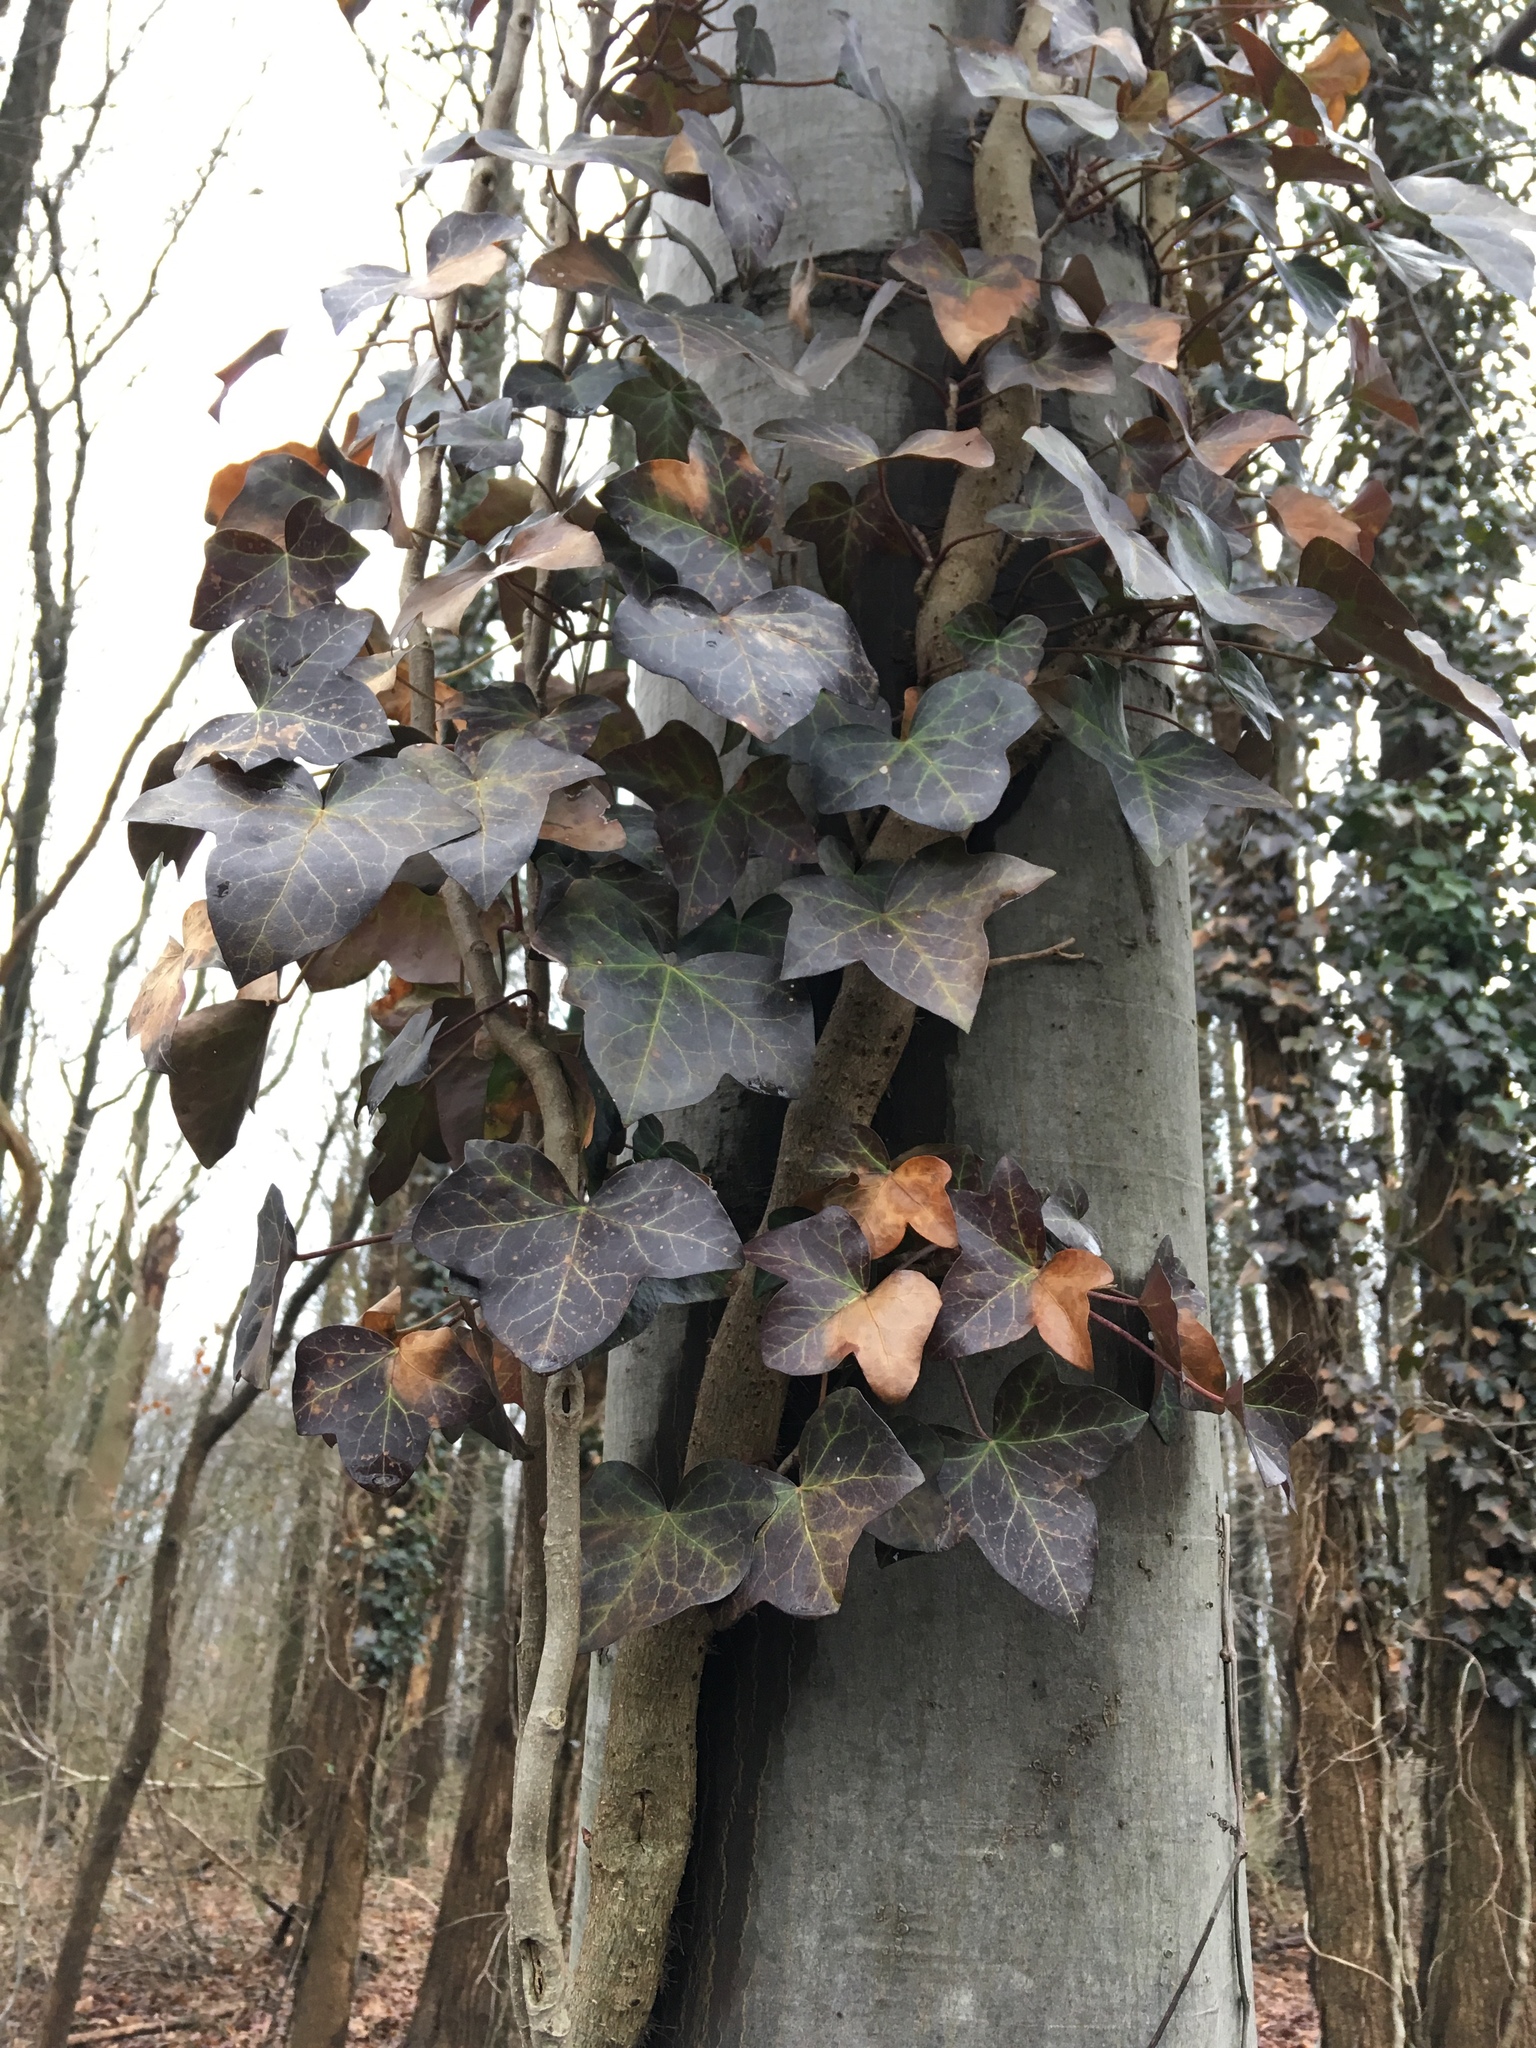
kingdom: Plantae
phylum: Tracheophyta
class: Magnoliopsida
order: Apiales
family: Araliaceae
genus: Hedera
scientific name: Hedera helix
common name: Ivy
